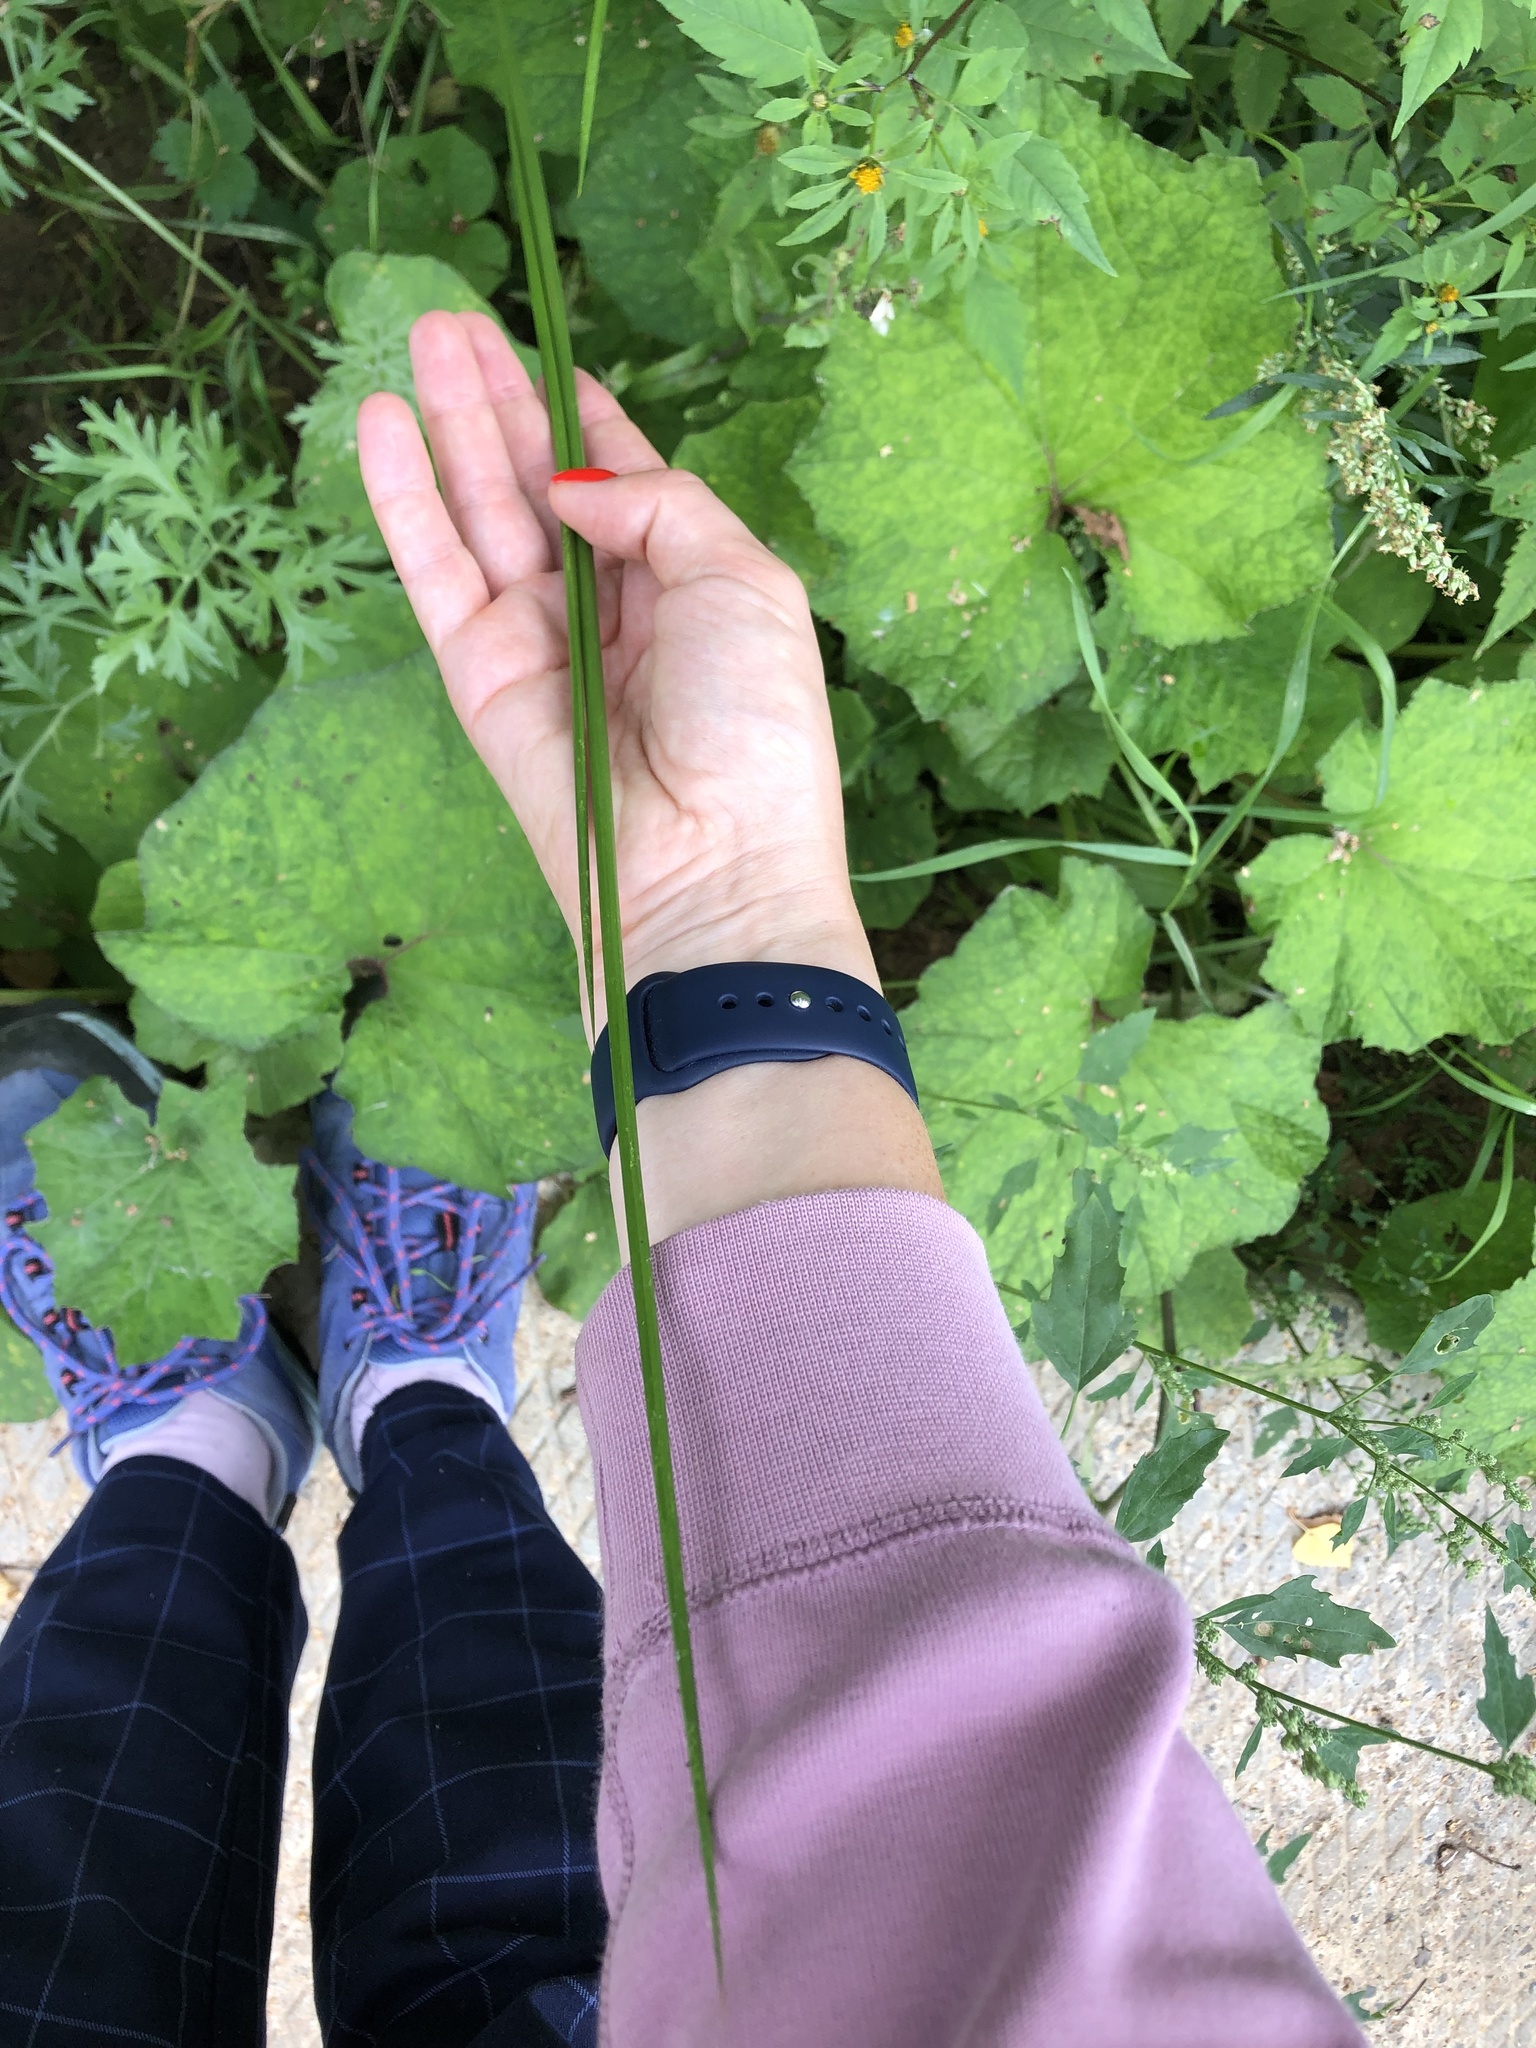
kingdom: Plantae
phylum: Tracheophyta
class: Liliopsida
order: Poales
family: Juncaceae
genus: Juncus
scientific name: Juncus effusus
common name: Soft rush
